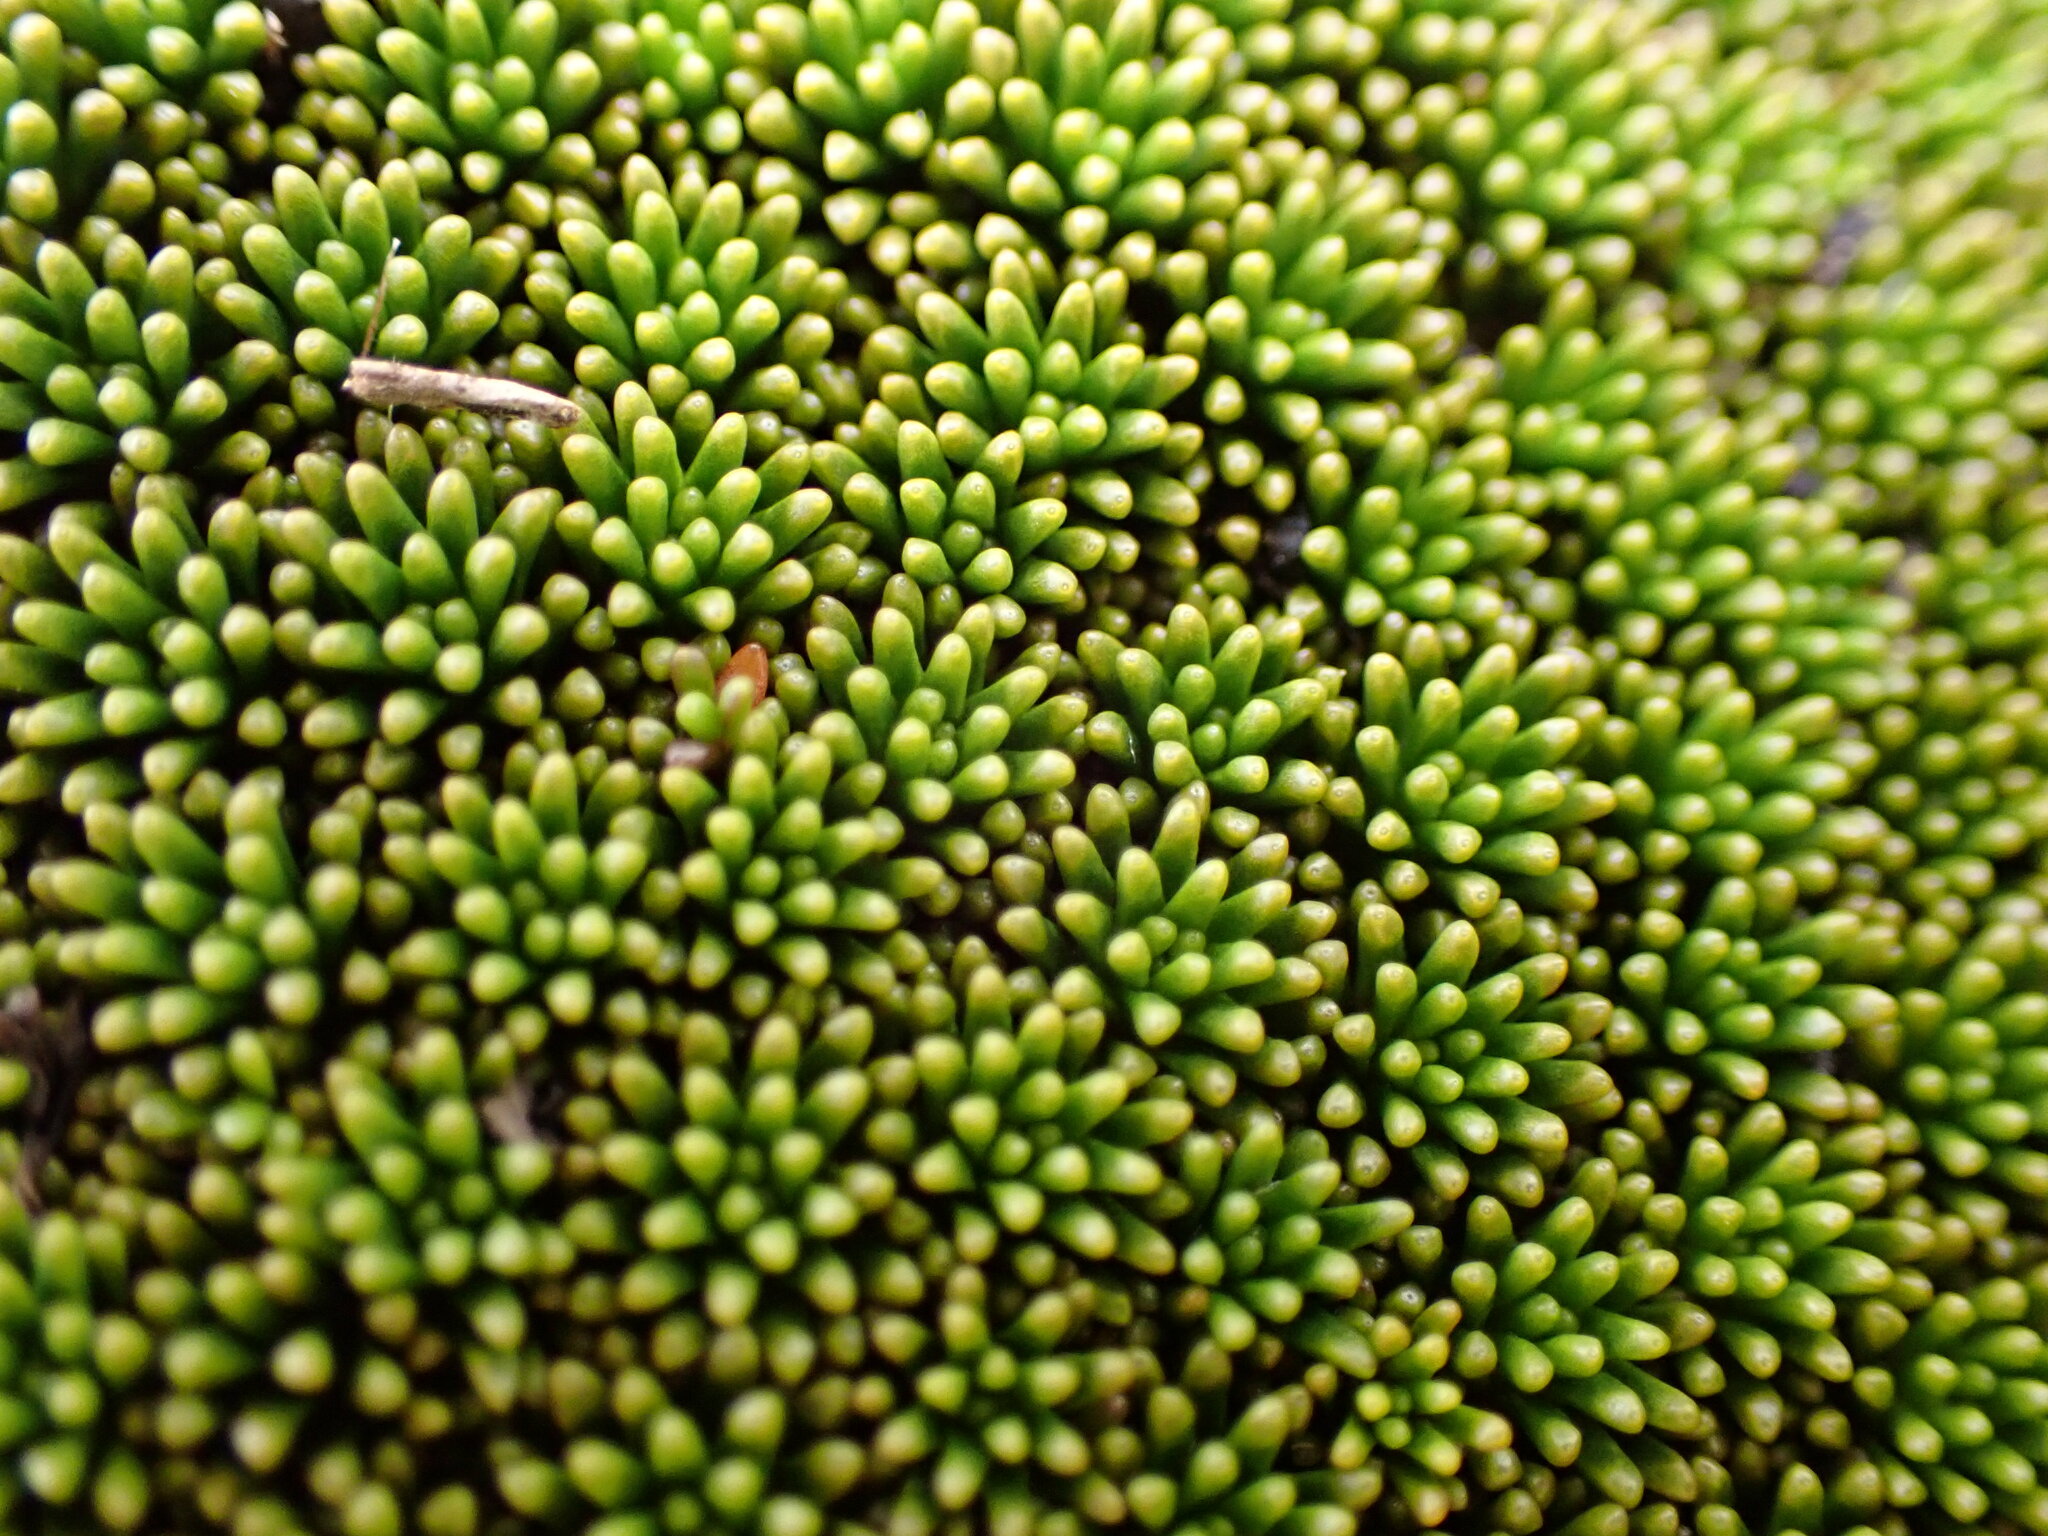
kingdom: Plantae
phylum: Tracheophyta
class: Magnoliopsida
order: Asterales
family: Stylidiaceae
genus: Phyllachne
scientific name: Phyllachne colensoi
